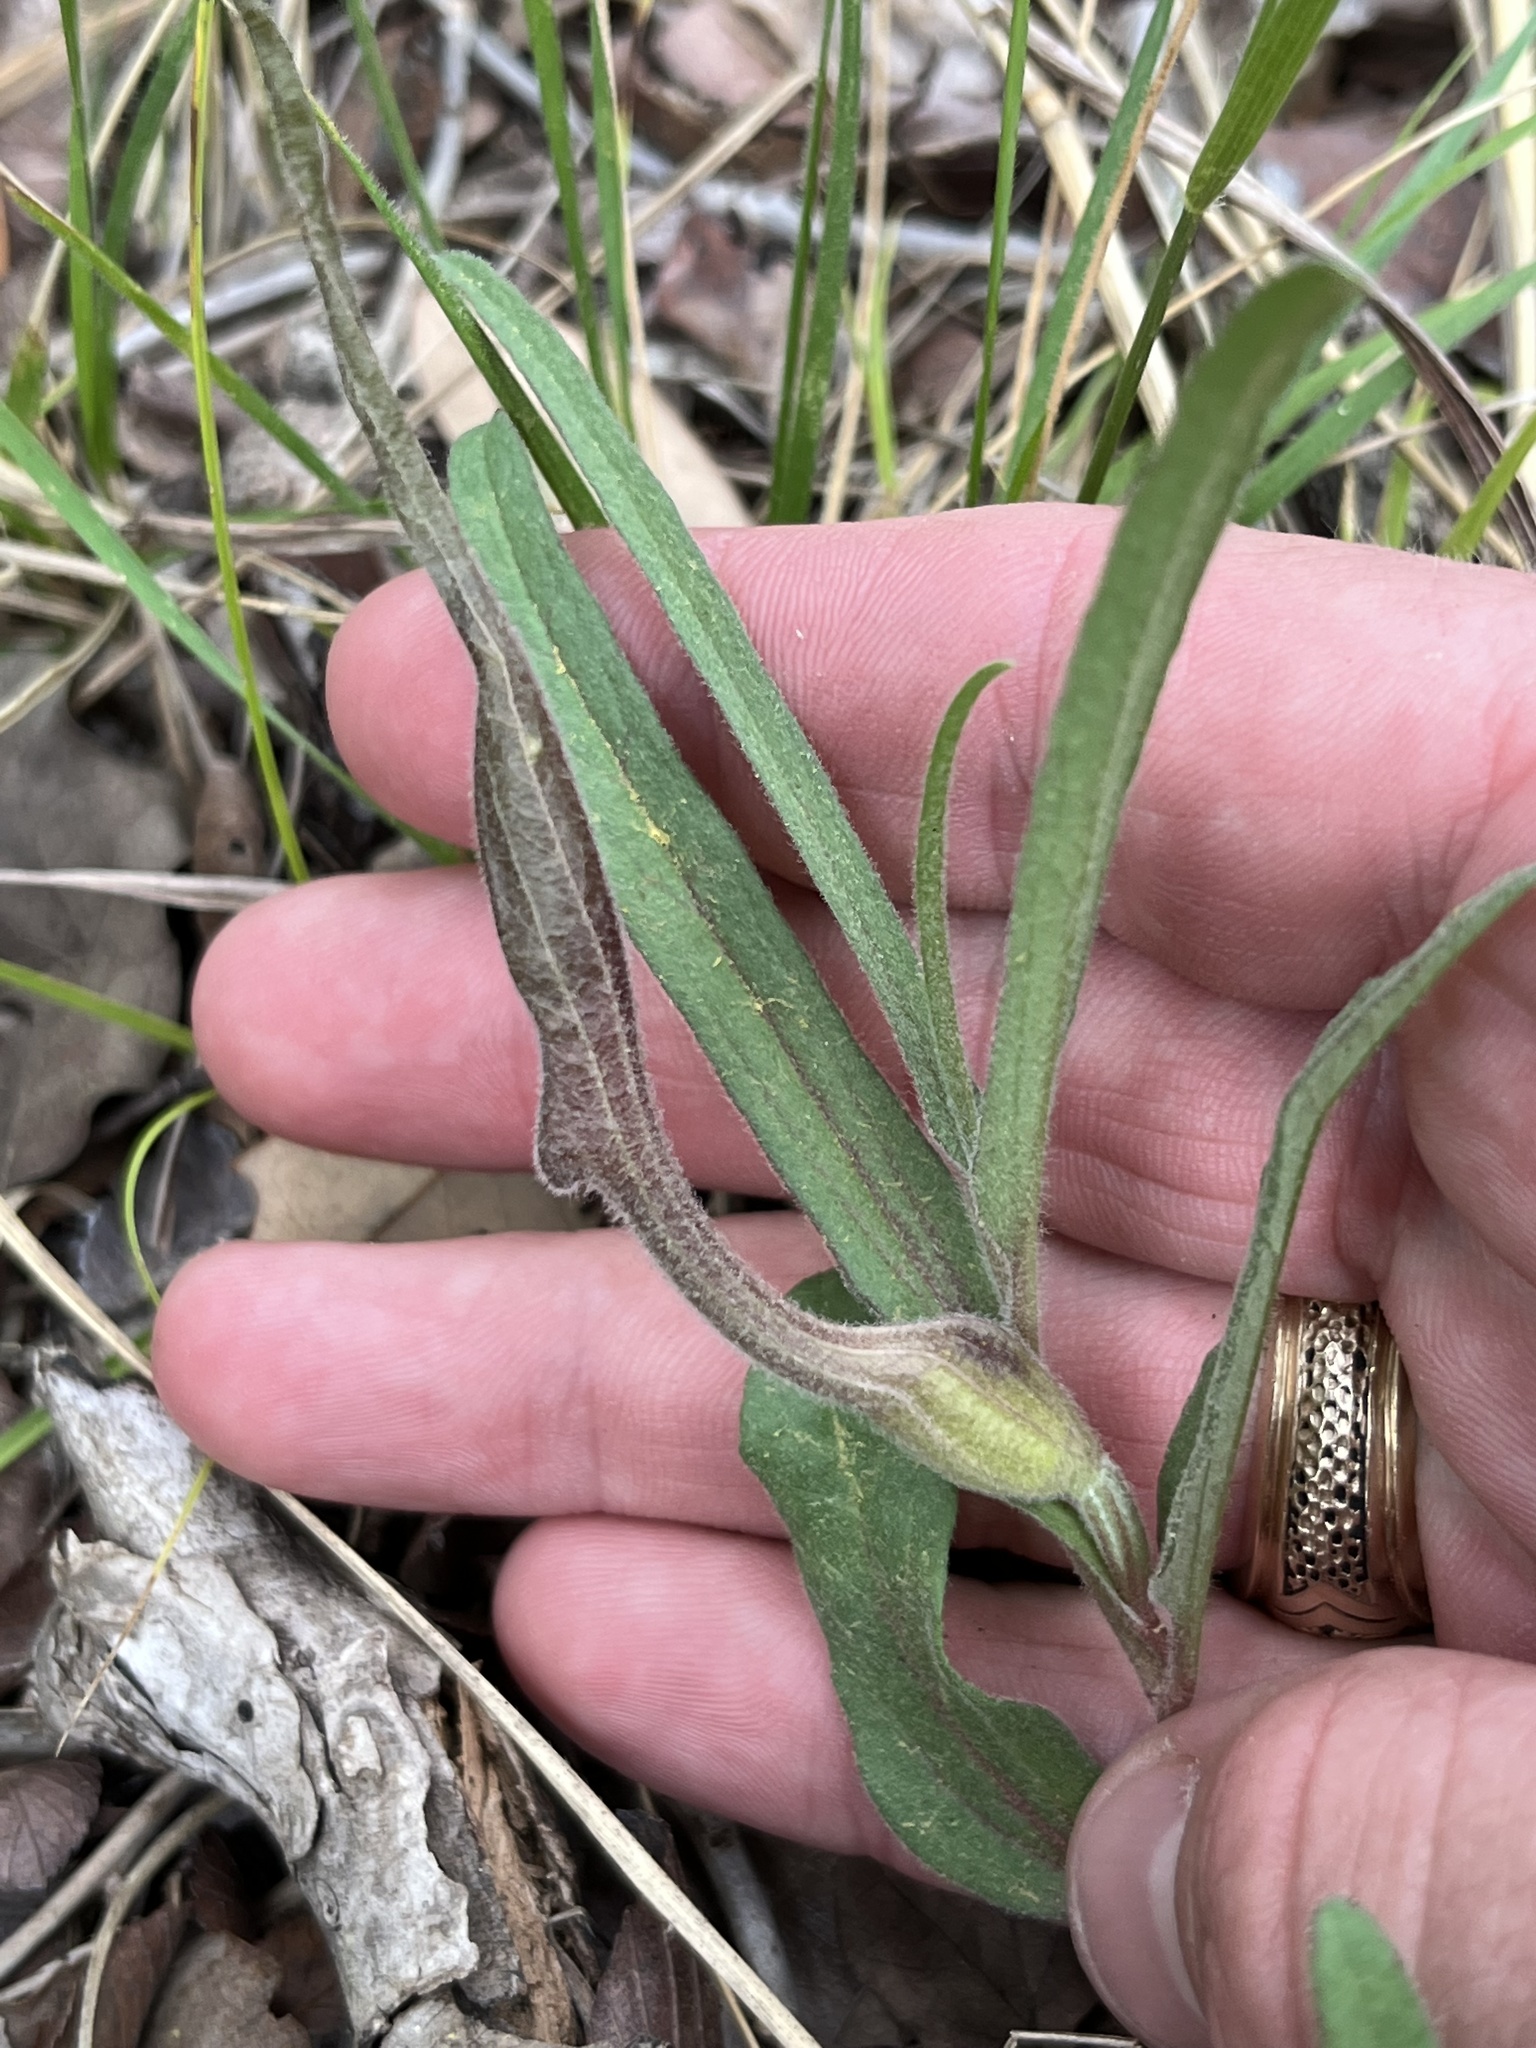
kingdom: Plantae
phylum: Tracheophyta
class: Magnoliopsida
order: Piperales
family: Aristolochiaceae
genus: Aristolochia
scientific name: Aristolochia erecta
